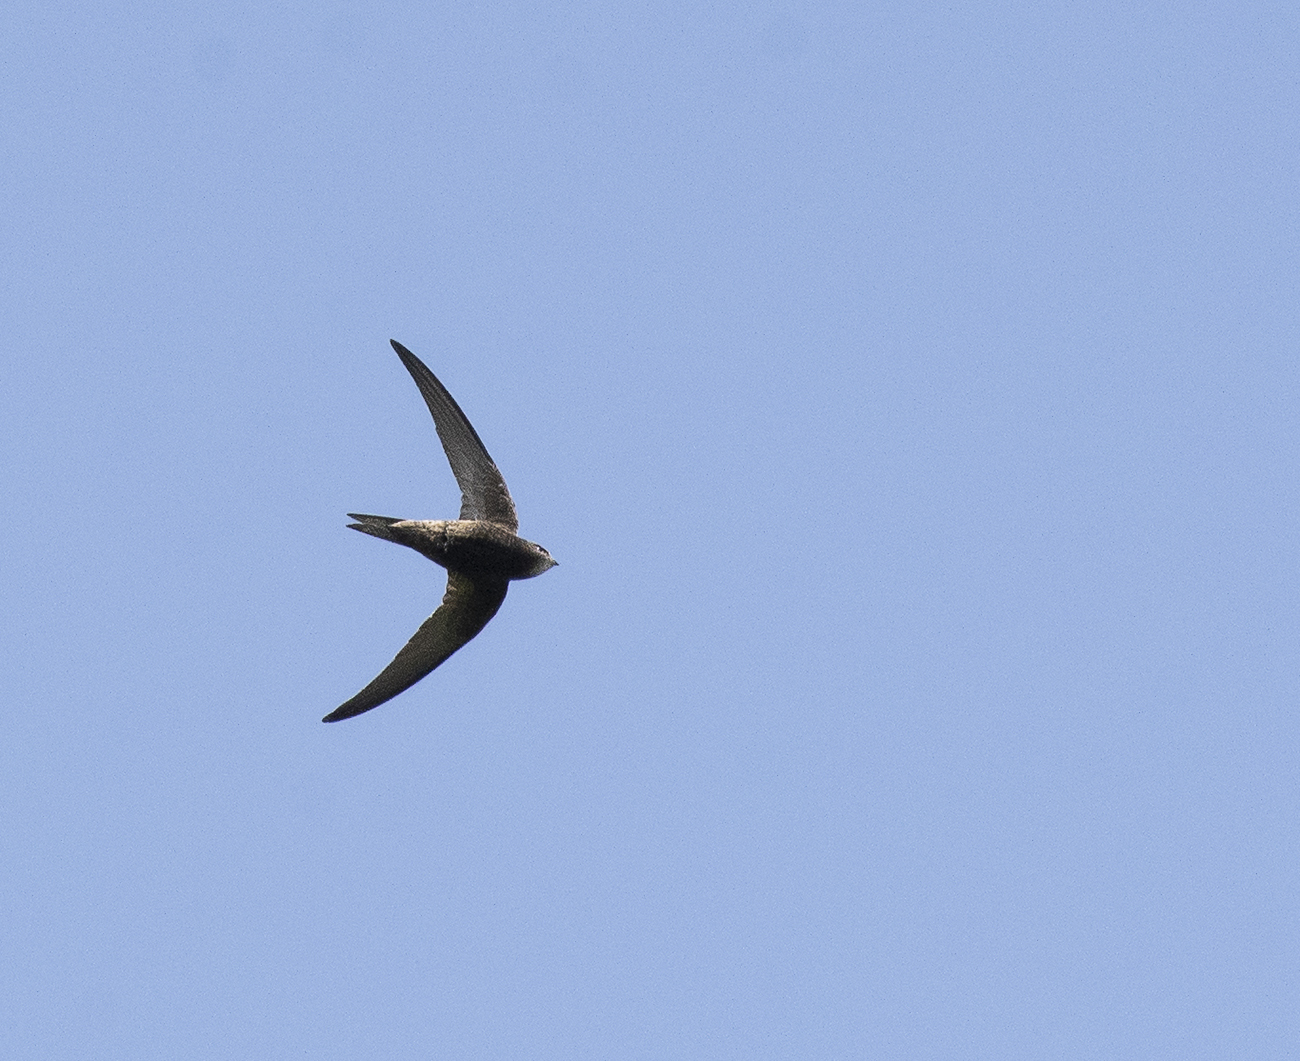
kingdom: Animalia
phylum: Chordata
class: Aves
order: Apodiformes
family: Apodidae
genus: Apus
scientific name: Apus apus
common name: Common swift
